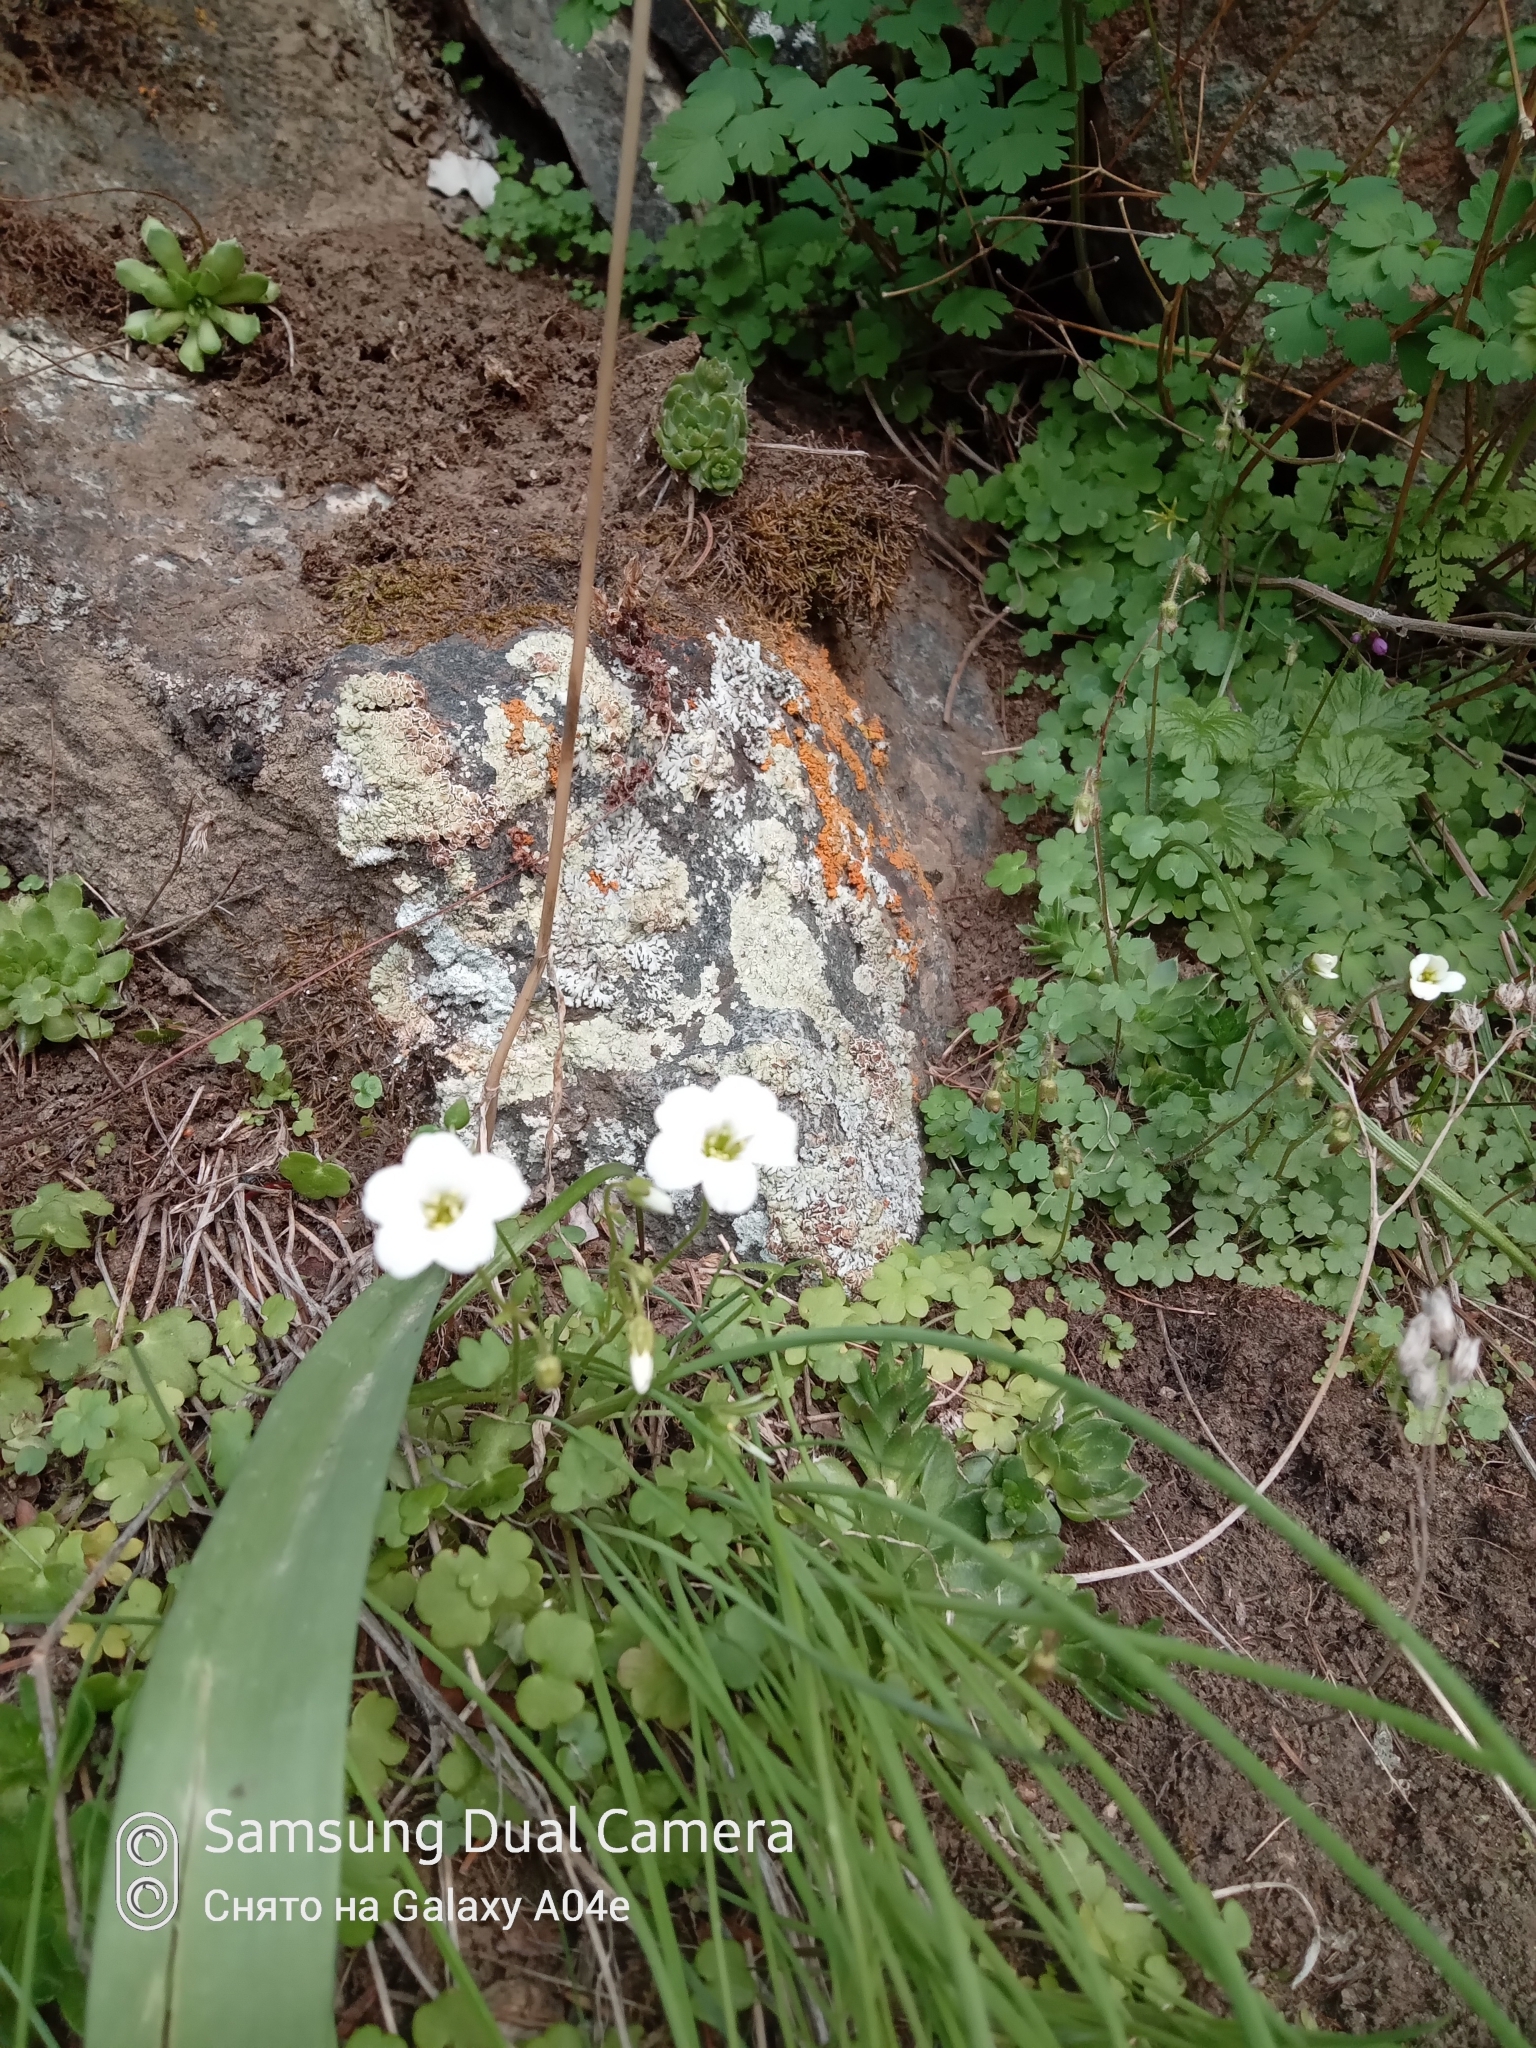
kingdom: Plantae
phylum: Tracheophyta
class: Magnoliopsida
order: Saxifragales
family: Saxifragaceae
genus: Saxifraga
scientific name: Saxifraga sibirica
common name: Siberian saxifrage
